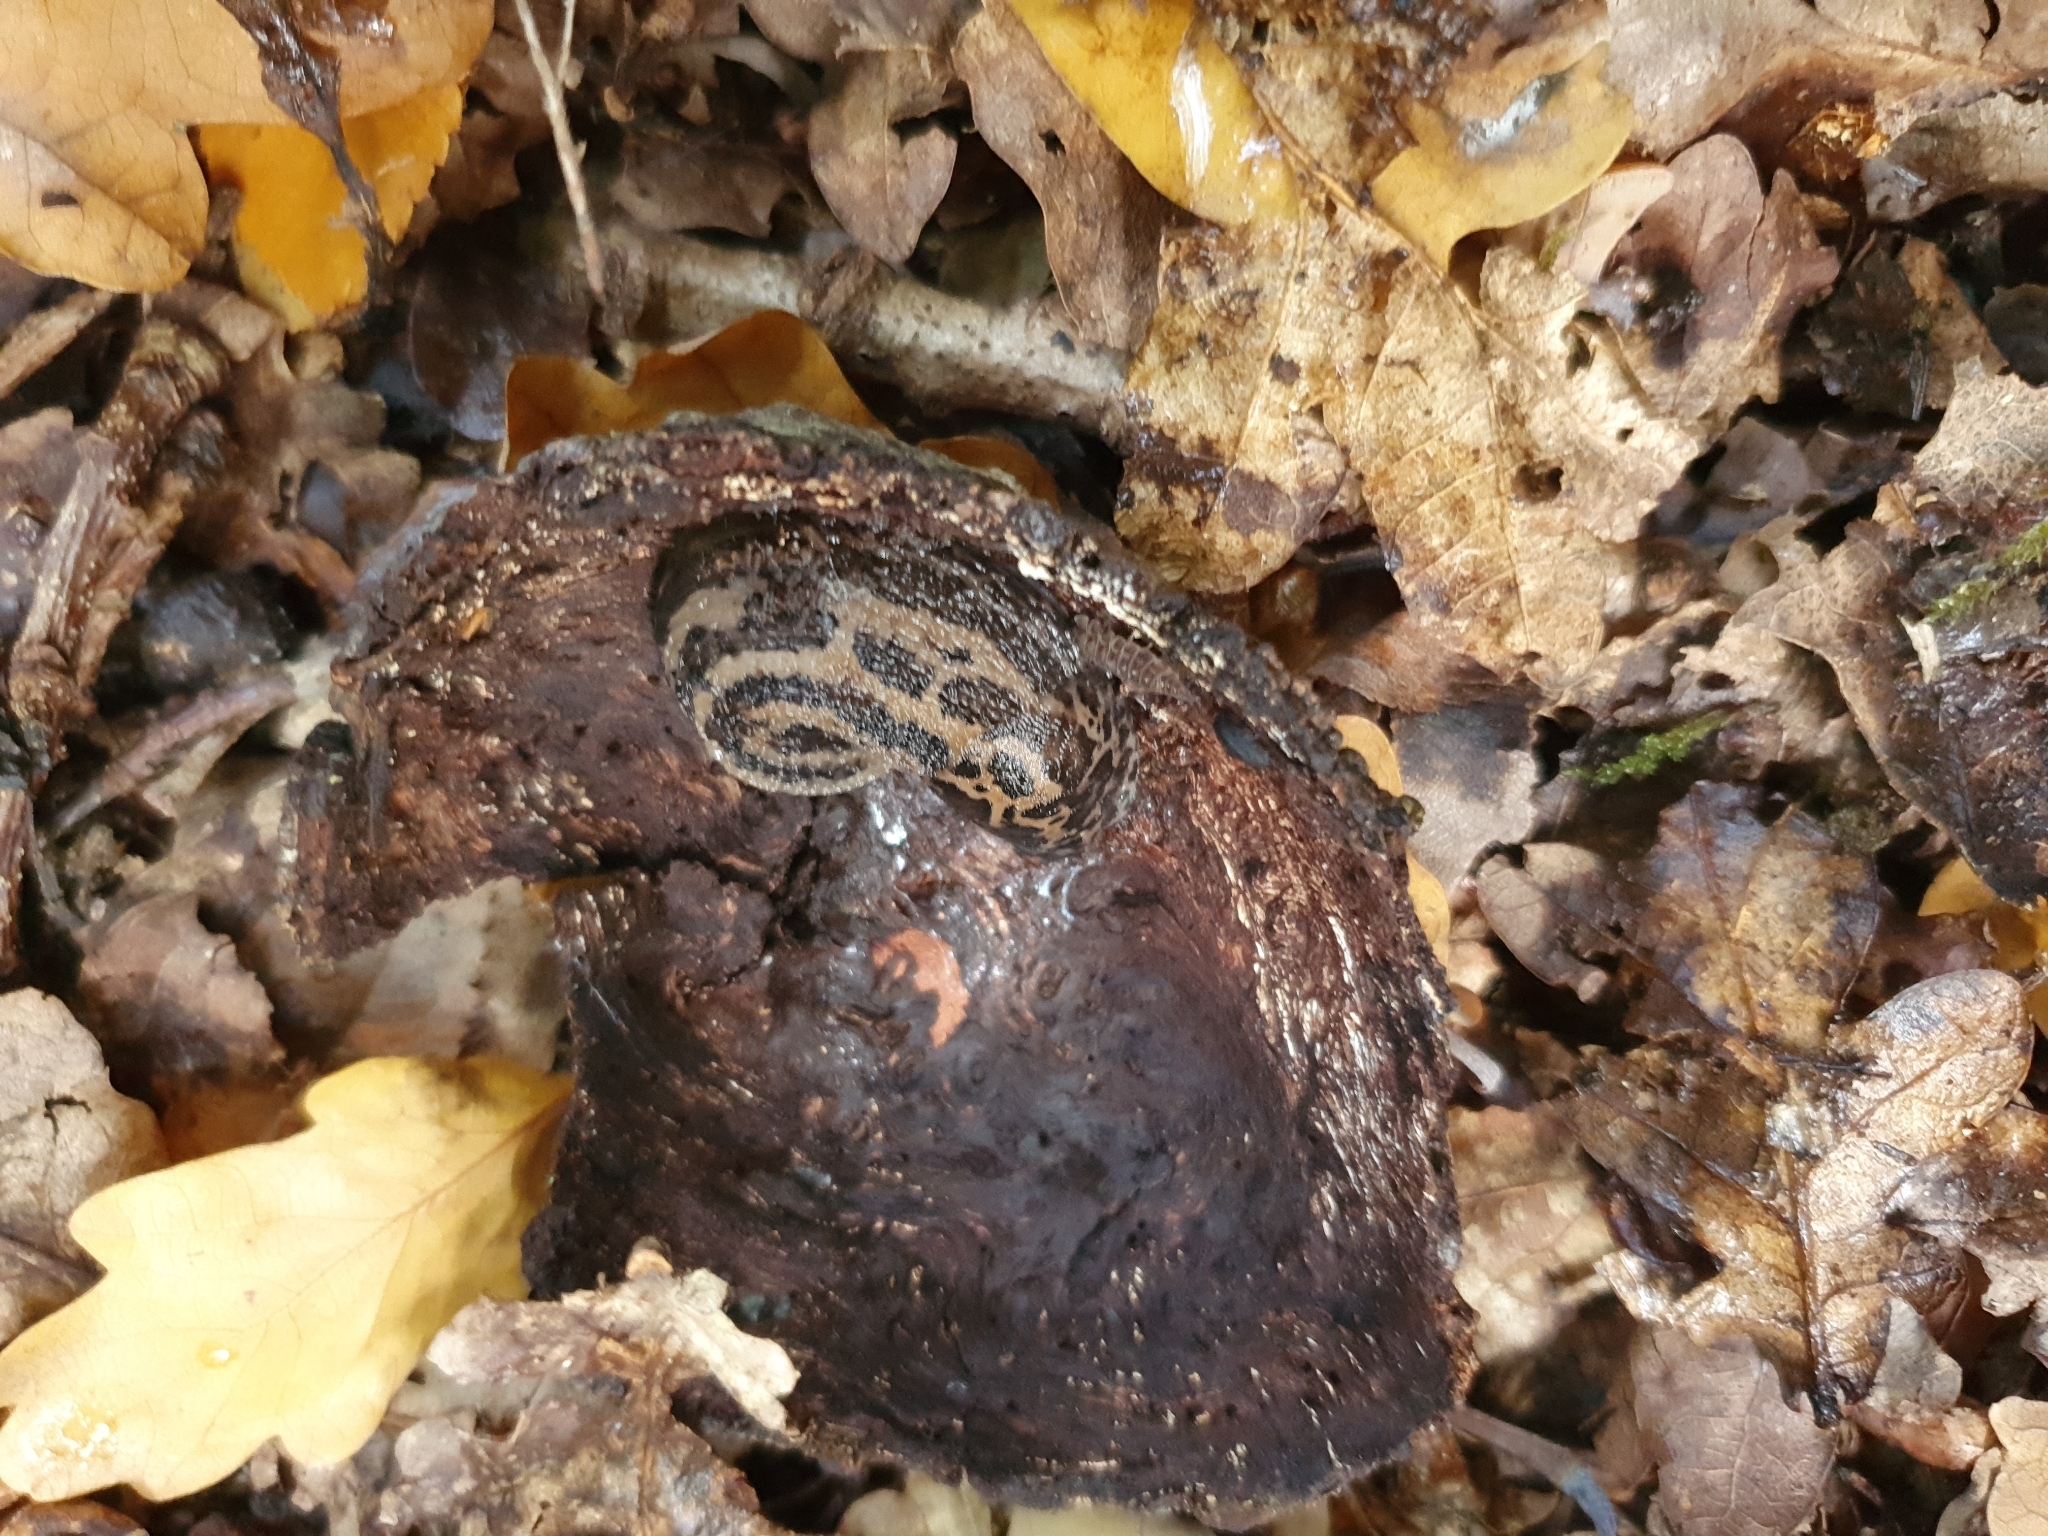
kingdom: Animalia
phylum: Mollusca
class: Gastropoda
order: Stylommatophora
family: Limacidae
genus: Limax
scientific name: Limax maximus
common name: Great grey slug
